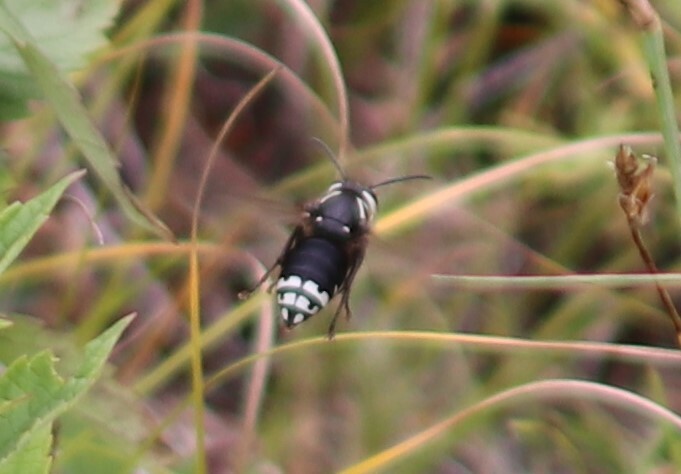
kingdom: Animalia
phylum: Arthropoda
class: Insecta
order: Hymenoptera
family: Vespidae
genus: Dolichovespula
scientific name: Dolichovespula maculata
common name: Bald-faced hornet
